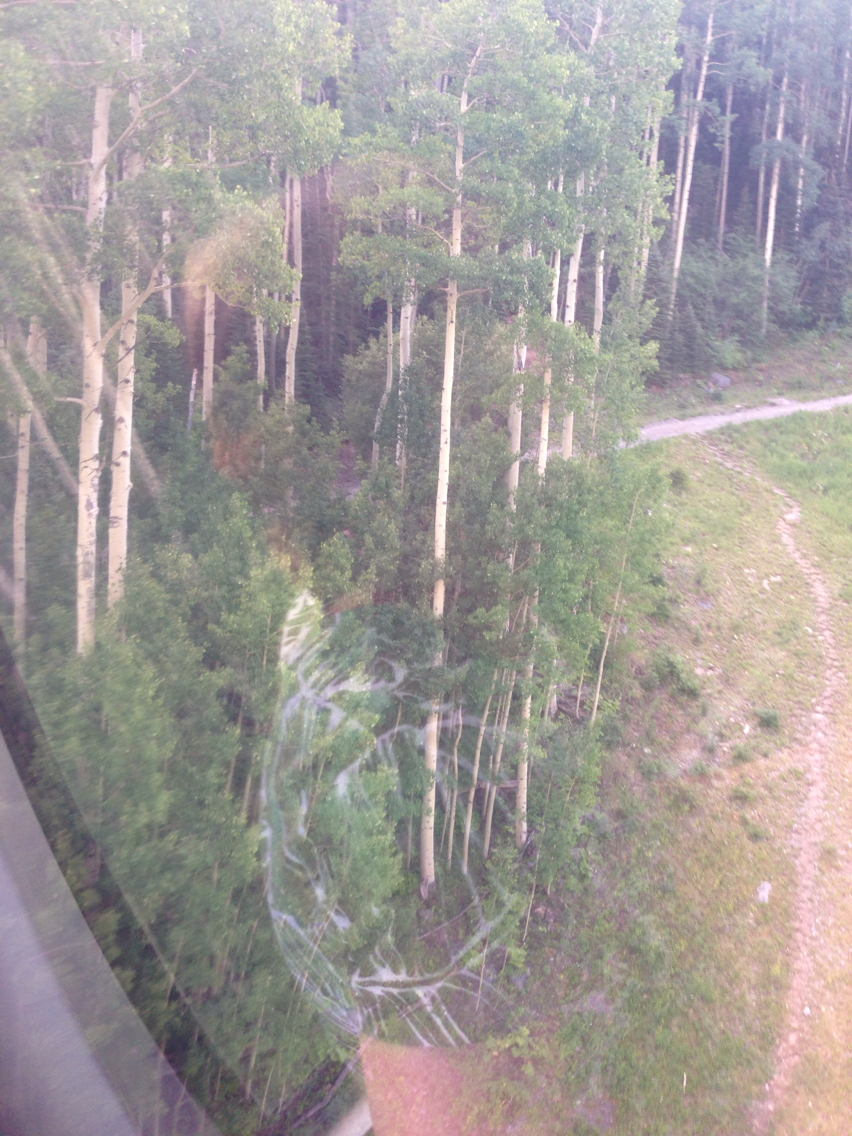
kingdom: Plantae
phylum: Tracheophyta
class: Magnoliopsida
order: Malpighiales
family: Salicaceae
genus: Populus
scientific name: Populus tremuloides
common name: Quaking aspen
